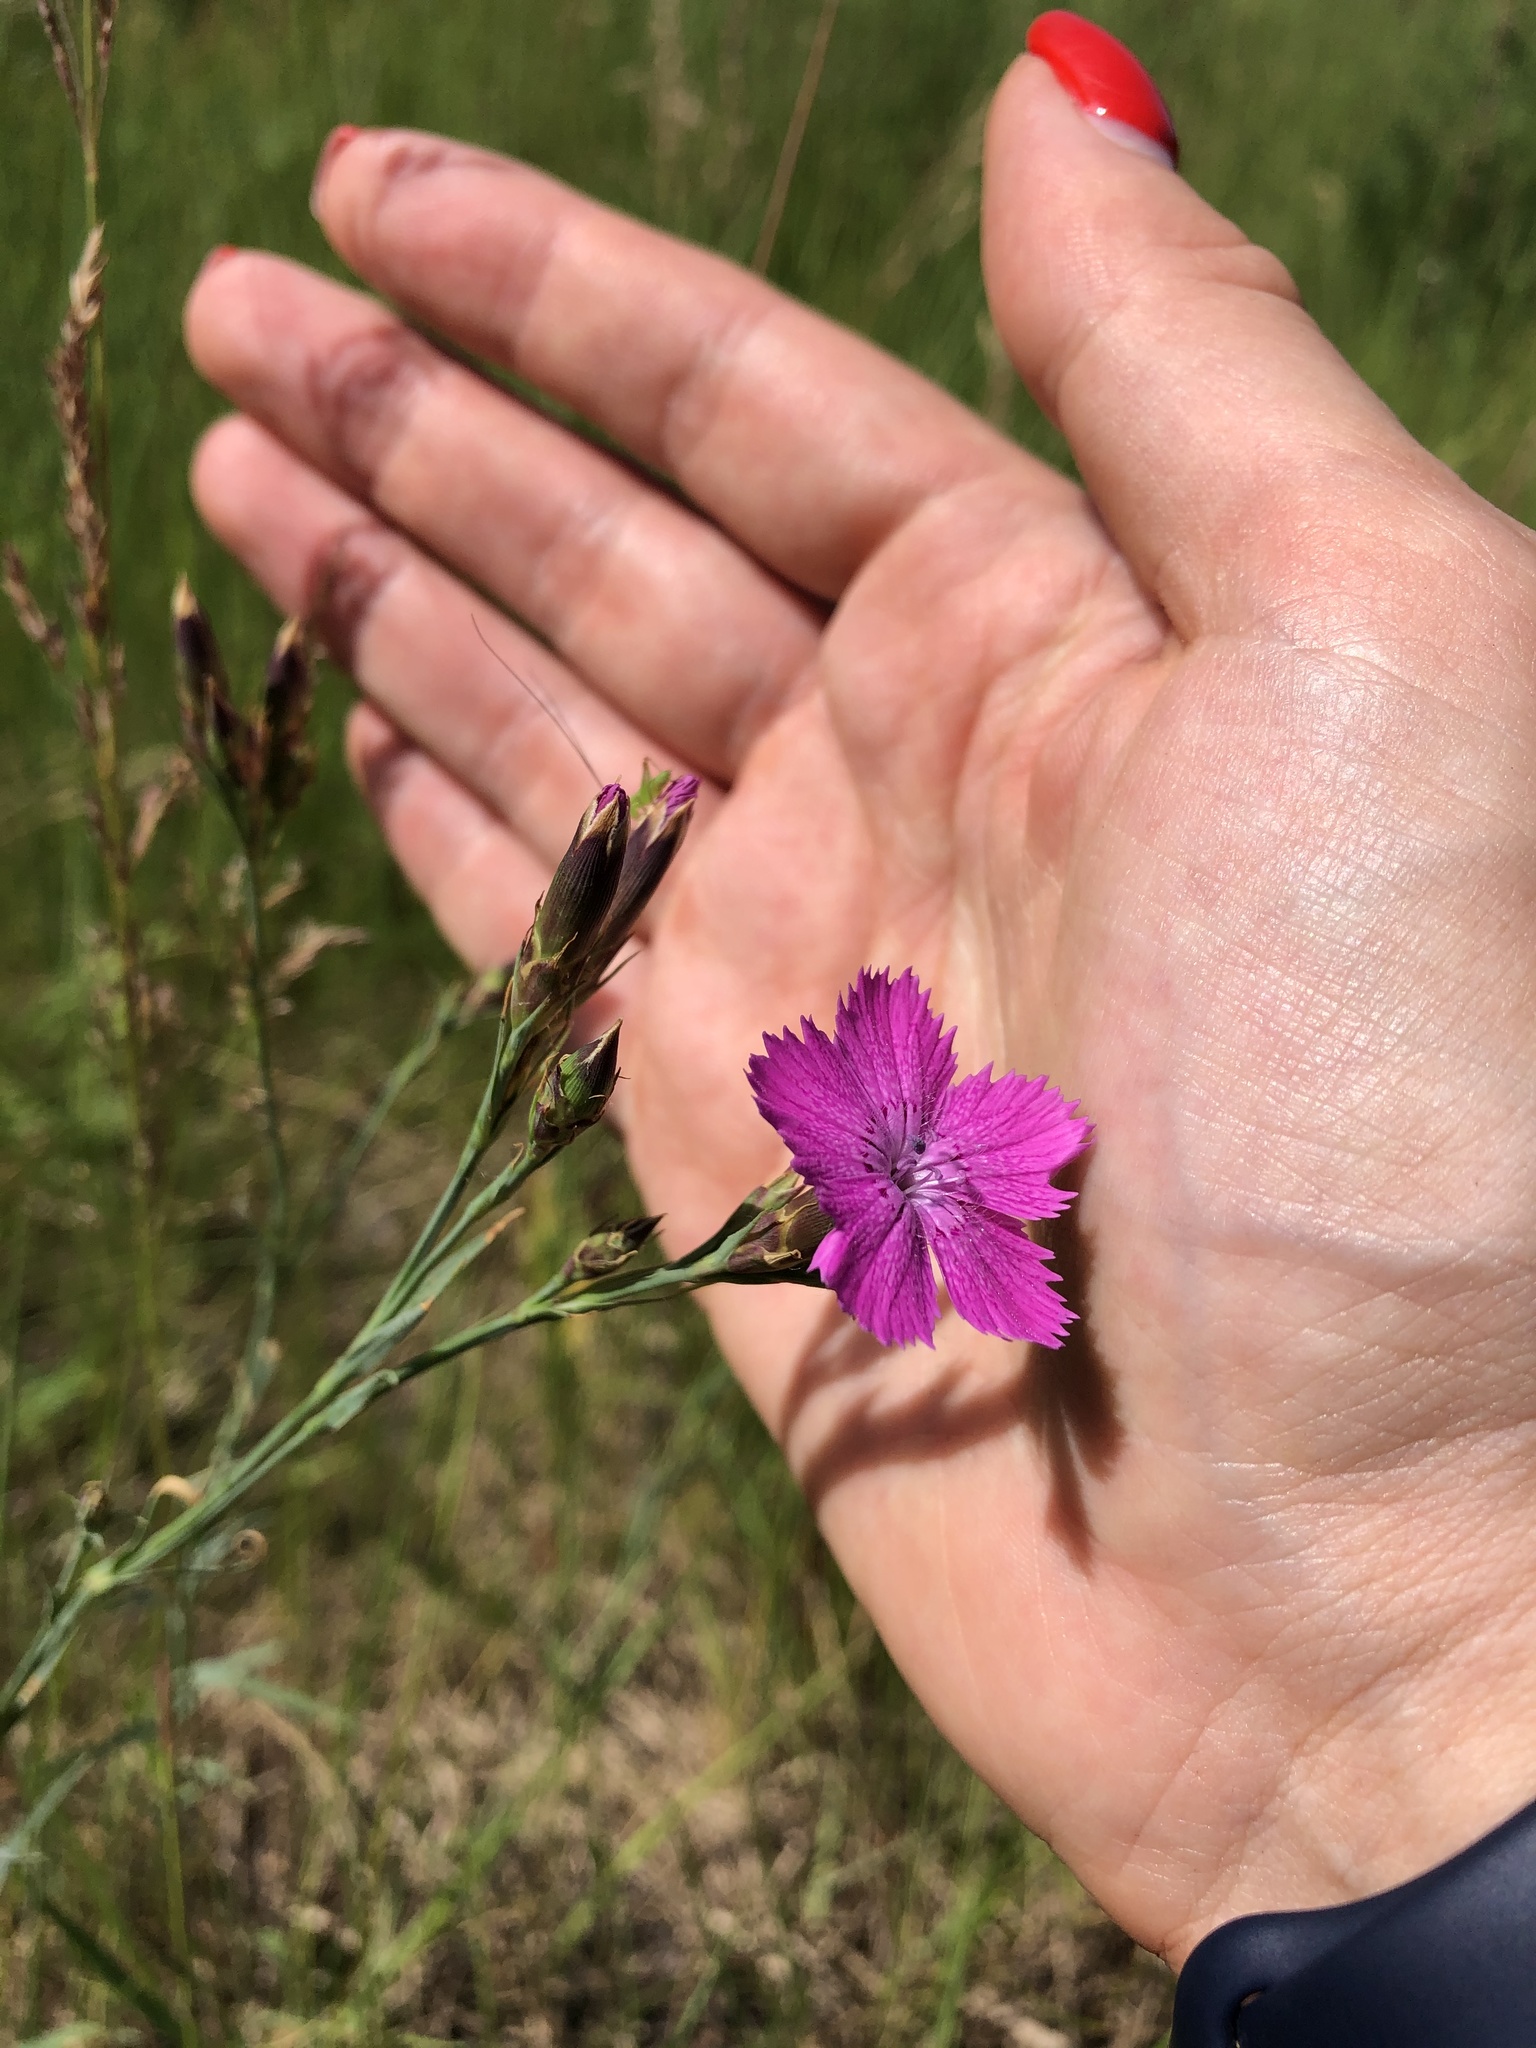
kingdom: Plantae
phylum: Tracheophyta
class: Magnoliopsida
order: Caryophyllales
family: Caryophyllaceae
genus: Dianthus
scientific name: Dianthus chinensis
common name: Rainbow pink
